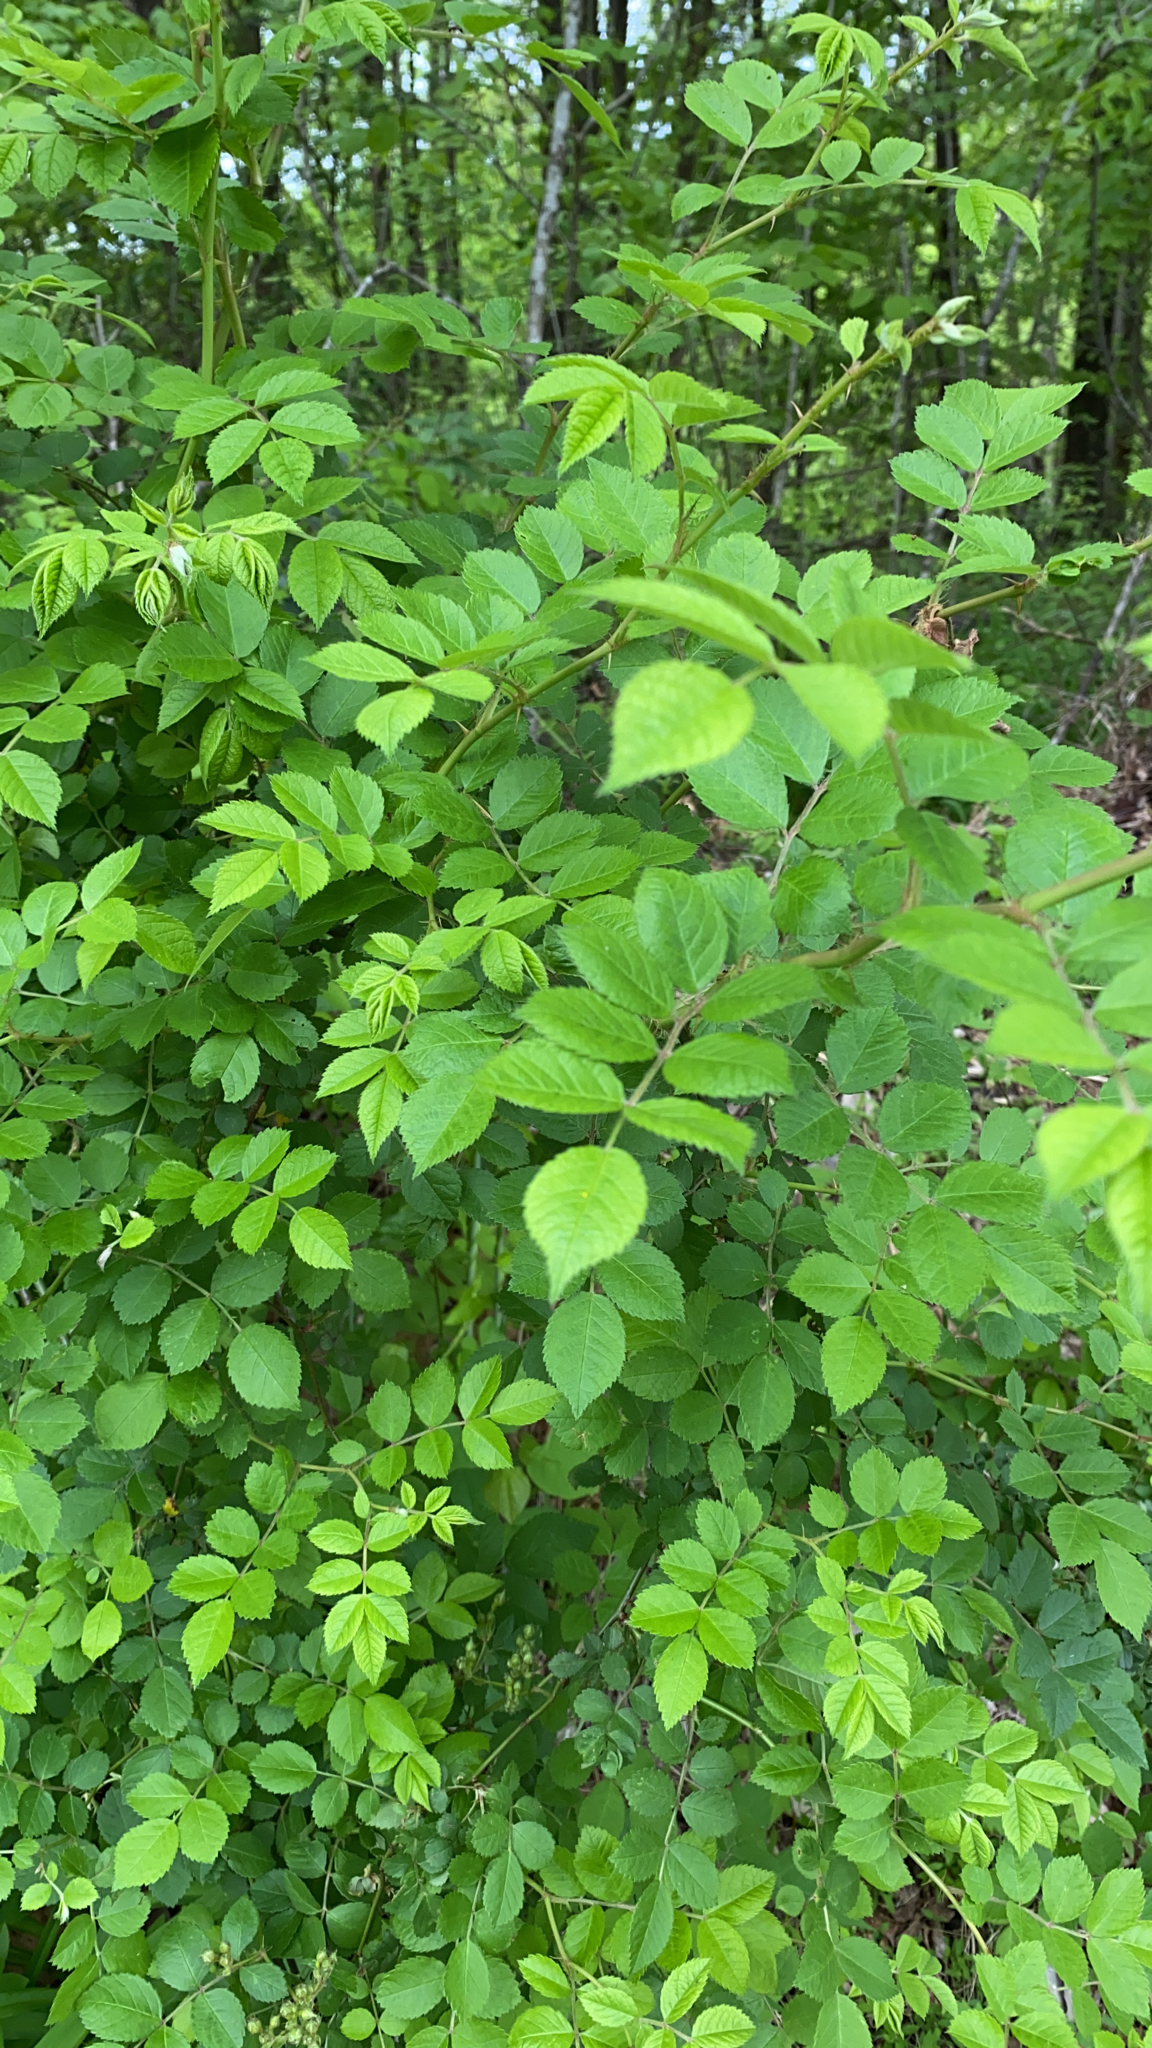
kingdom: Plantae
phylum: Tracheophyta
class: Magnoliopsida
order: Rosales
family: Rosaceae
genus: Rosa
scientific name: Rosa multiflora
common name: Multiflora rose
